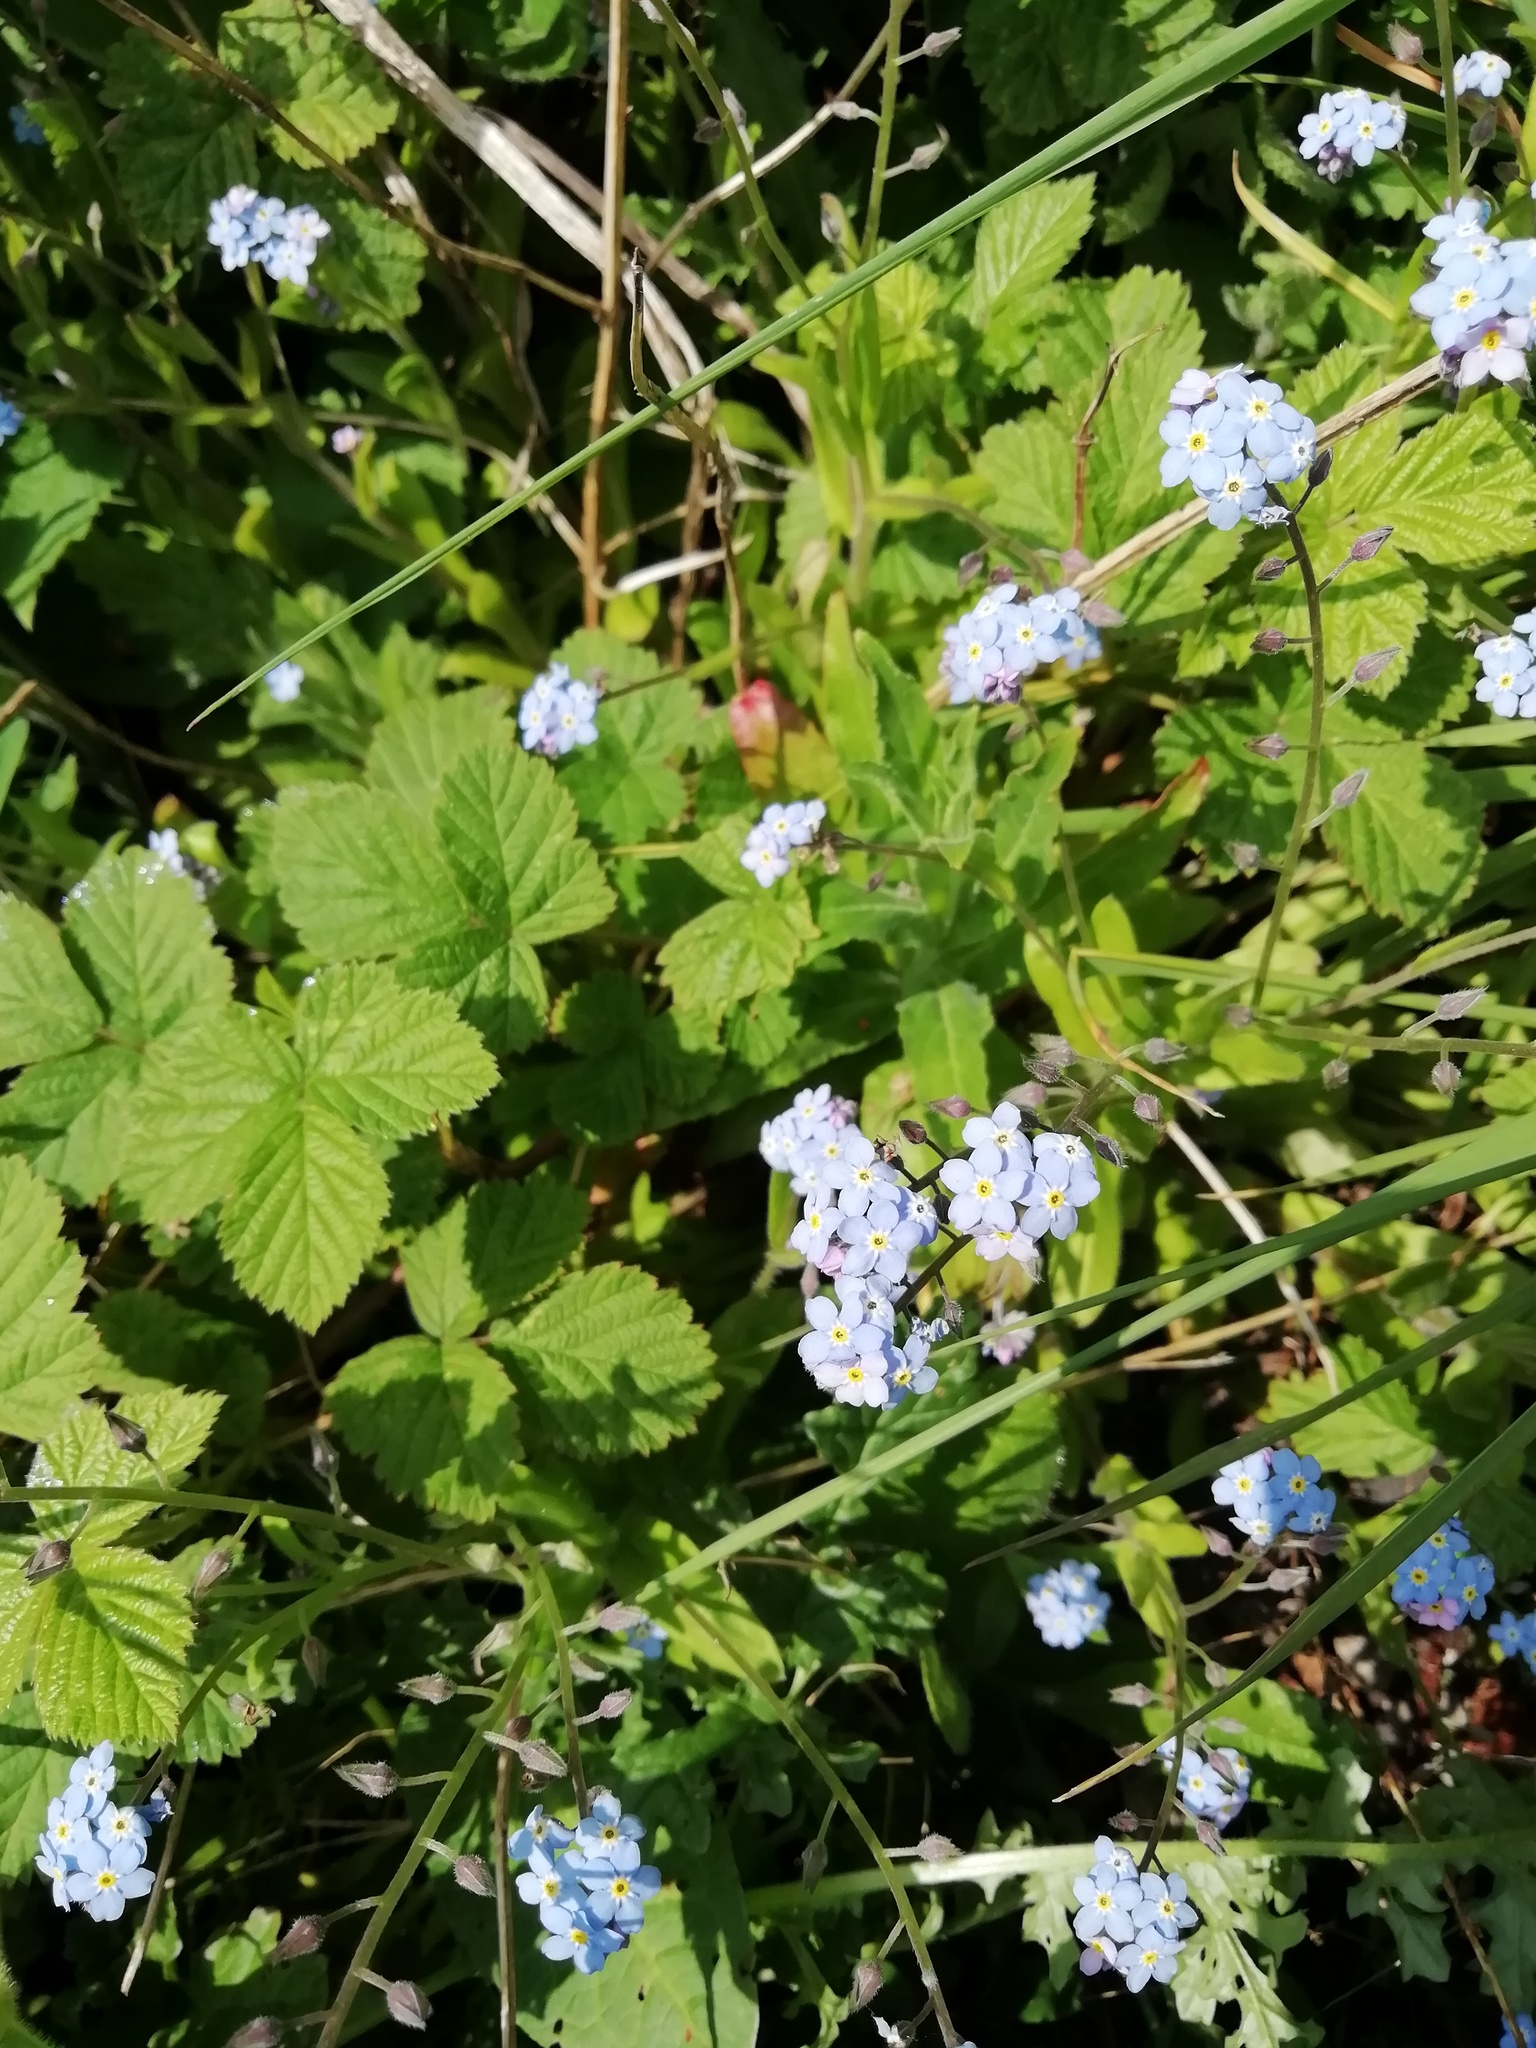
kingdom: Plantae
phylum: Tracheophyta
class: Magnoliopsida
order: Boraginales
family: Boraginaceae
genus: Myosotis
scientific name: Myosotis sylvatica
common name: Wood forget-me-not
